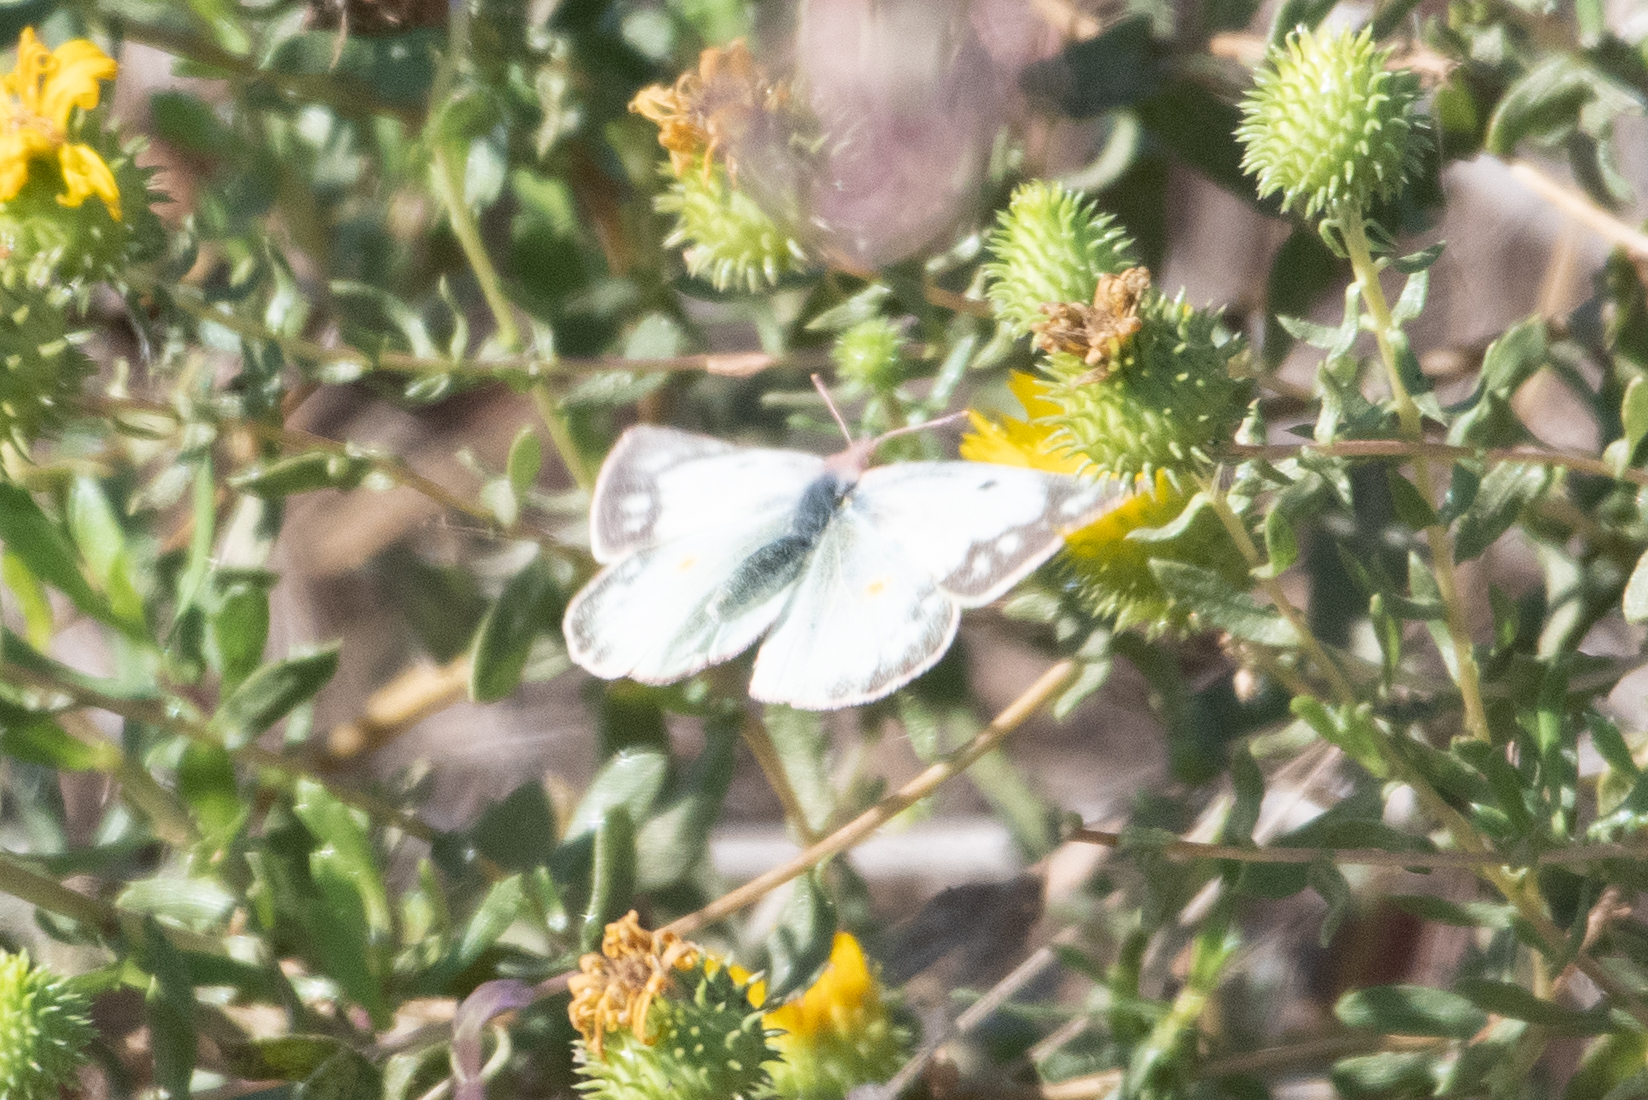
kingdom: Animalia
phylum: Arthropoda
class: Insecta
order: Lepidoptera
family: Pieridae
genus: Colias
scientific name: Colias eurytheme
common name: Alfalfa butterfly
